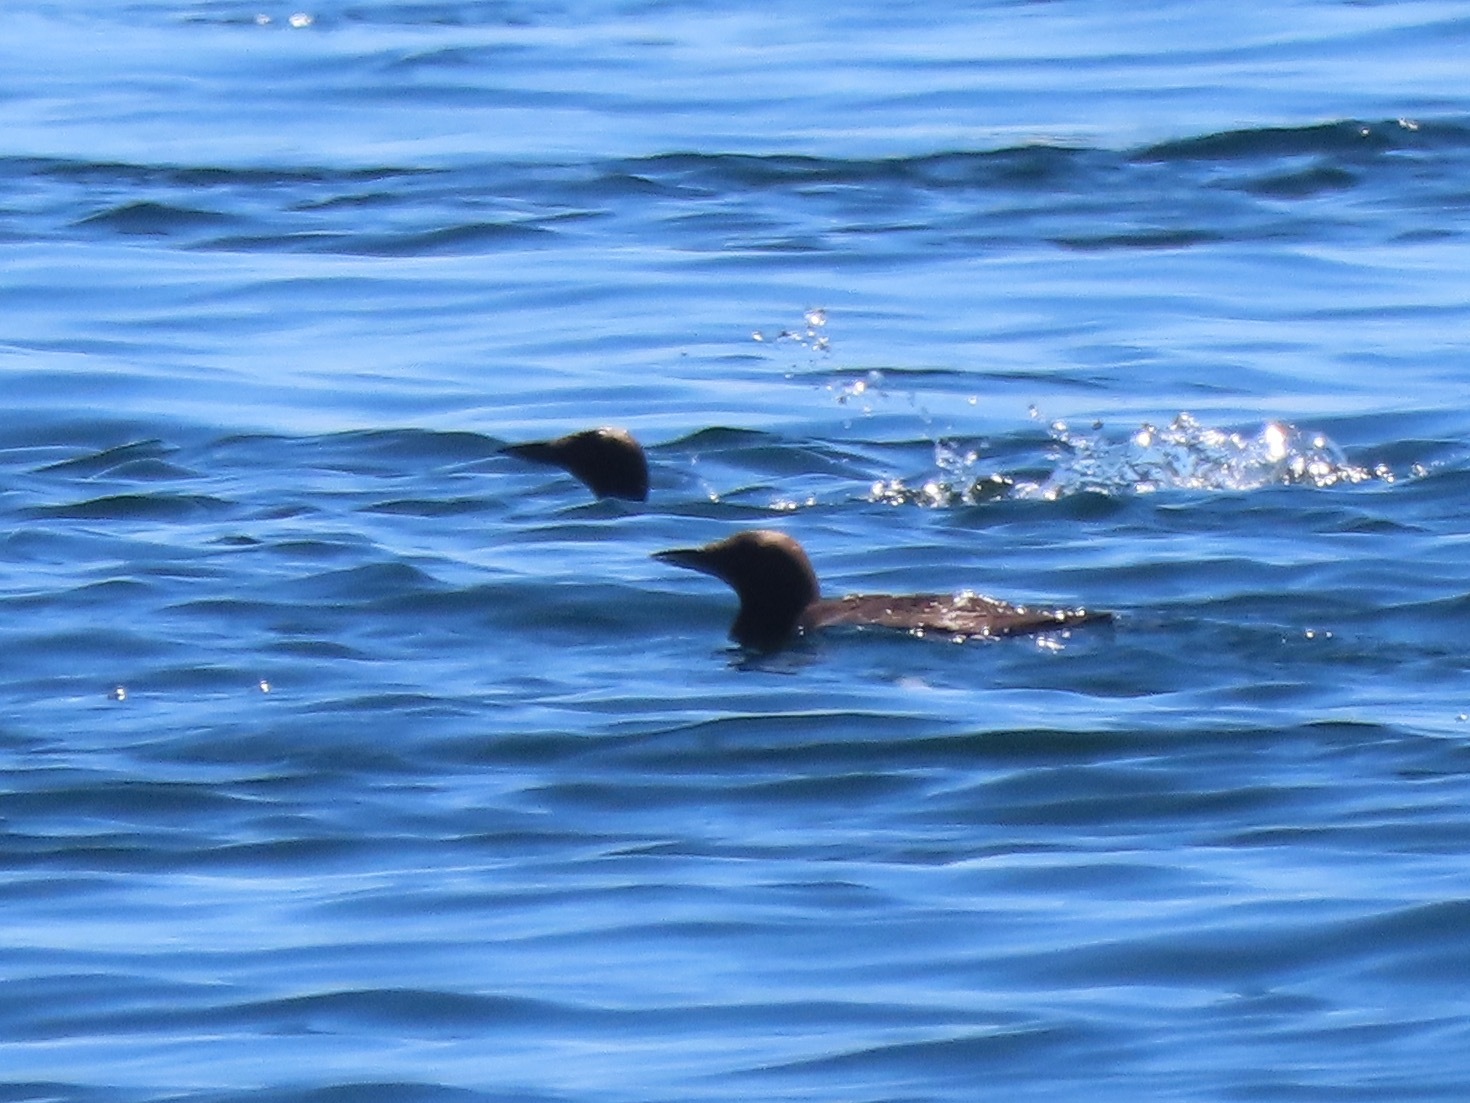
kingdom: Animalia
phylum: Chordata
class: Aves
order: Charadriiformes
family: Alcidae
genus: Uria
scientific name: Uria aalge
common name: Common murre
